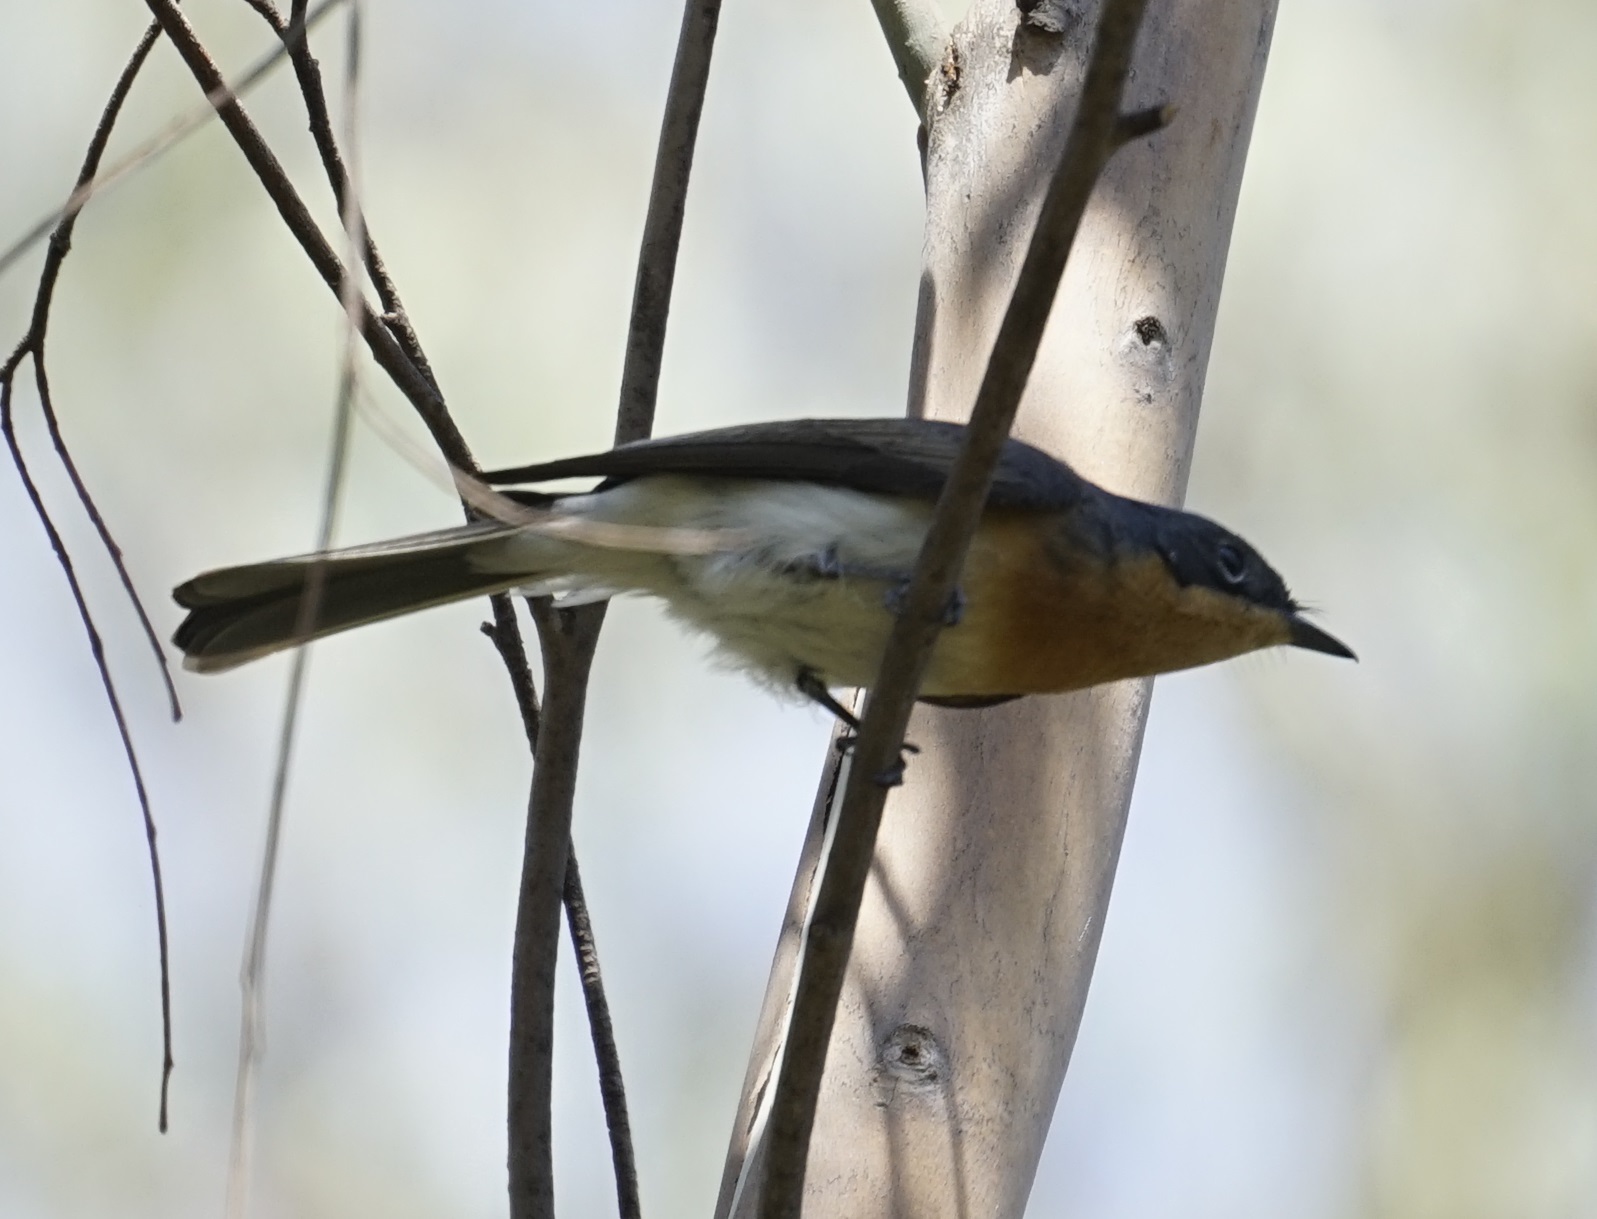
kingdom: Animalia
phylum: Chordata
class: Aves
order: Passeriformes
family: Monarchidae
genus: Myiagra
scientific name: Myiagra rubecula
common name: Leaden flycatcher
